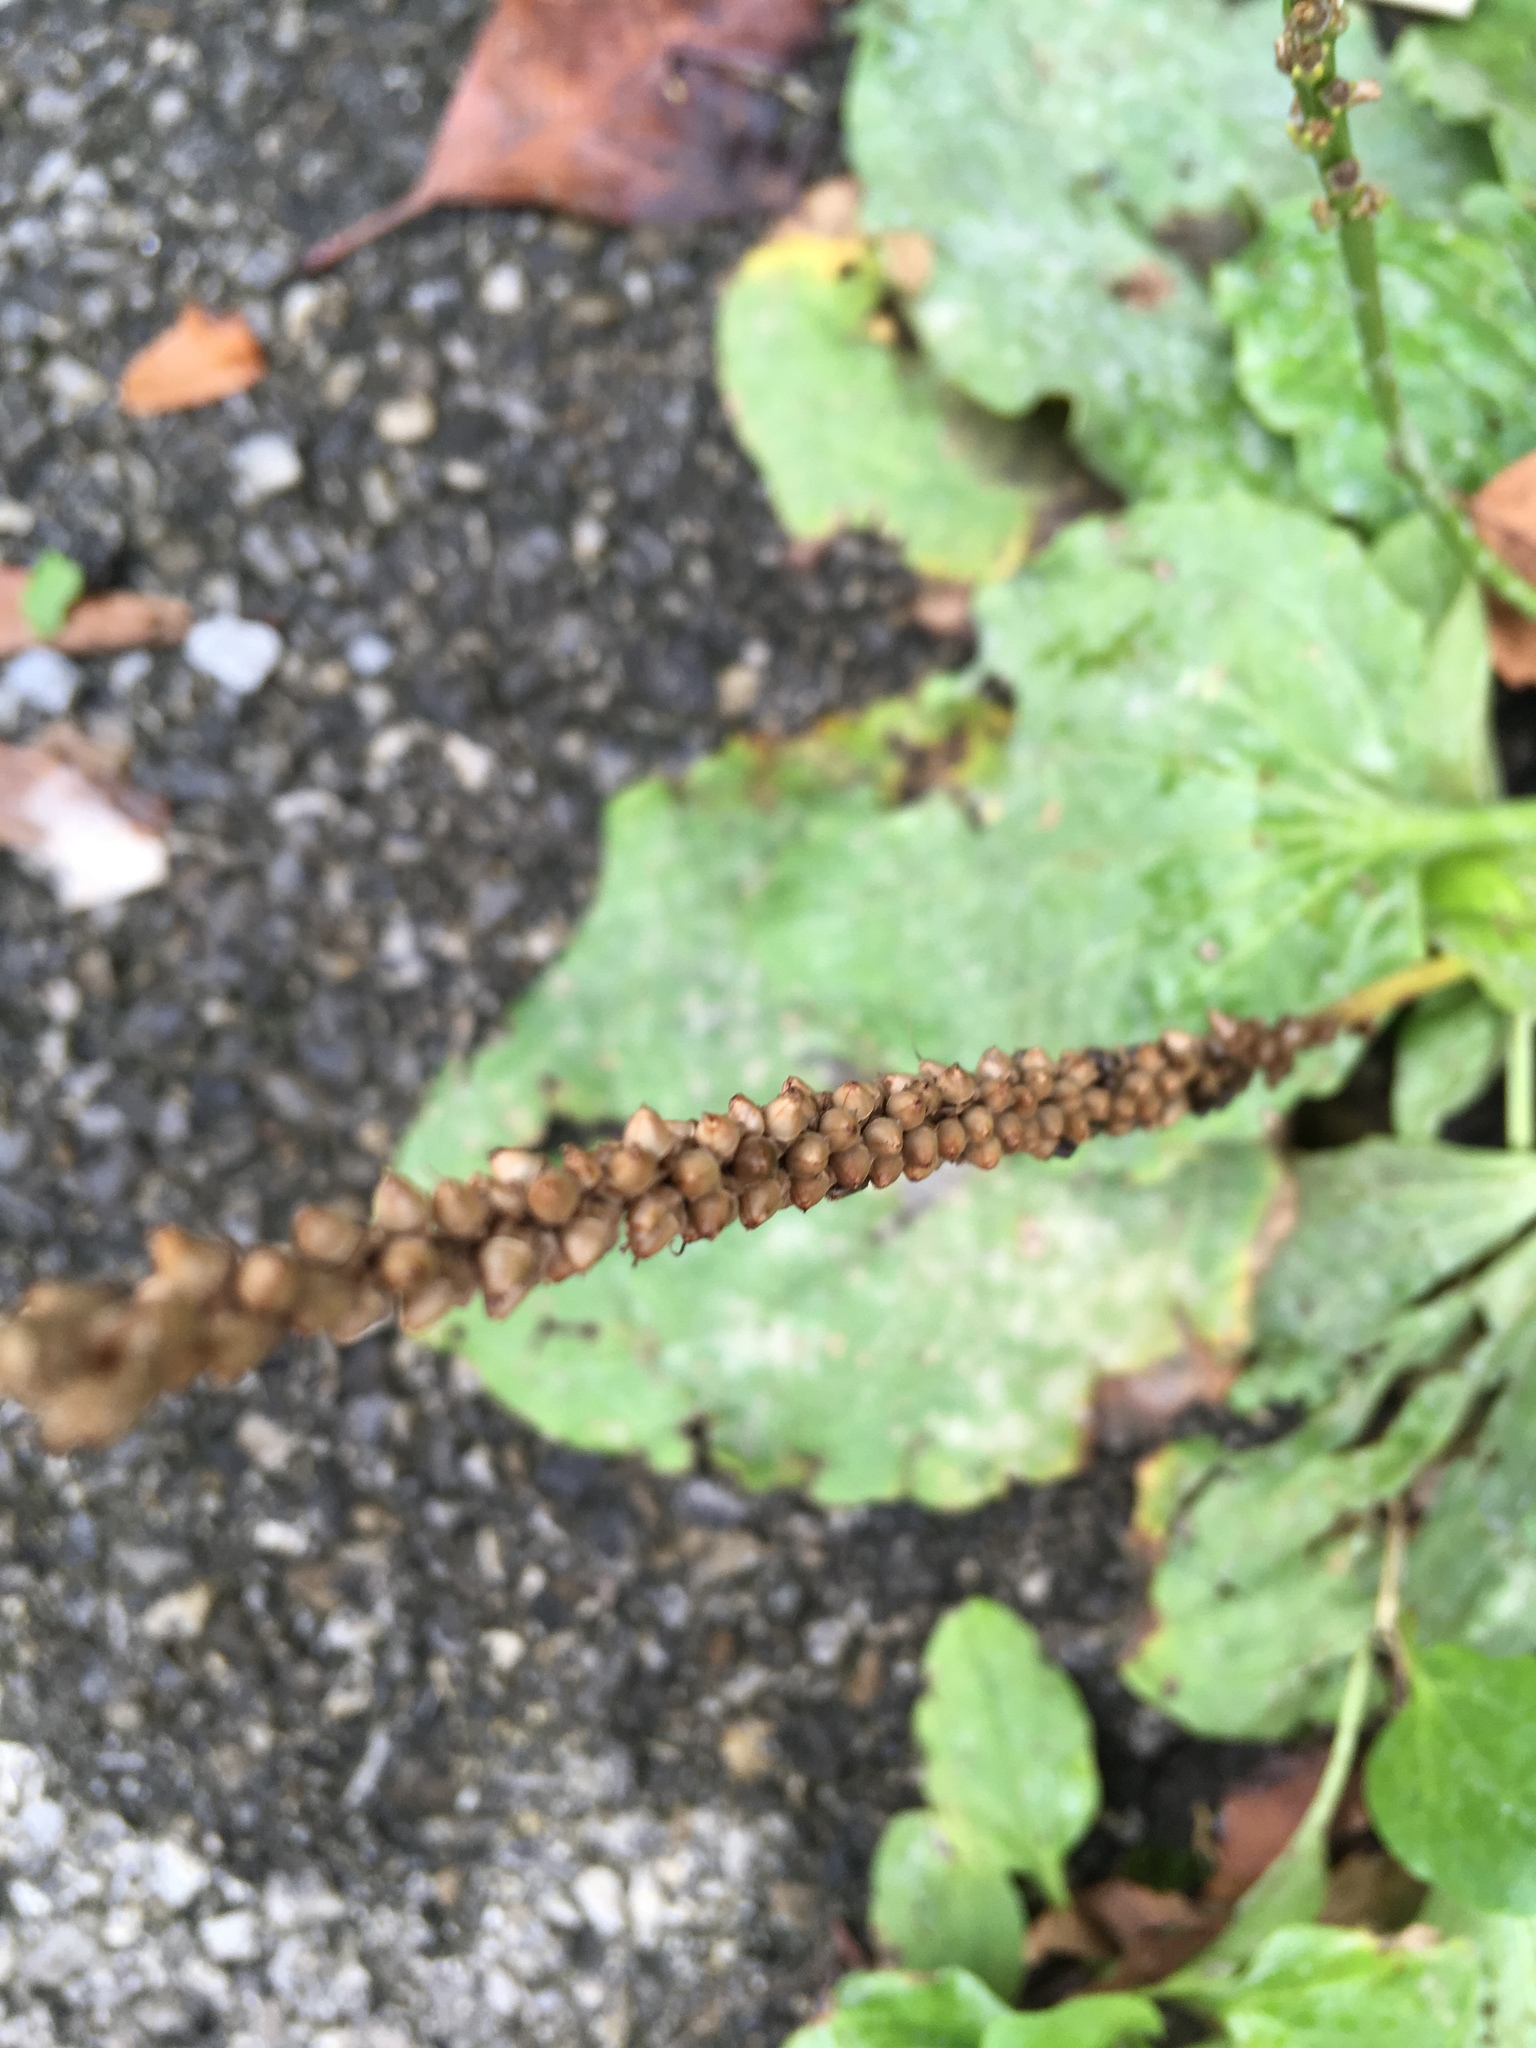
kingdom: Plantae
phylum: Tracheophyta
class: Magnoliopsida
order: Lamiales
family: Plantaginaceae
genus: Plantago
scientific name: Plantago major
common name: Common plantain
